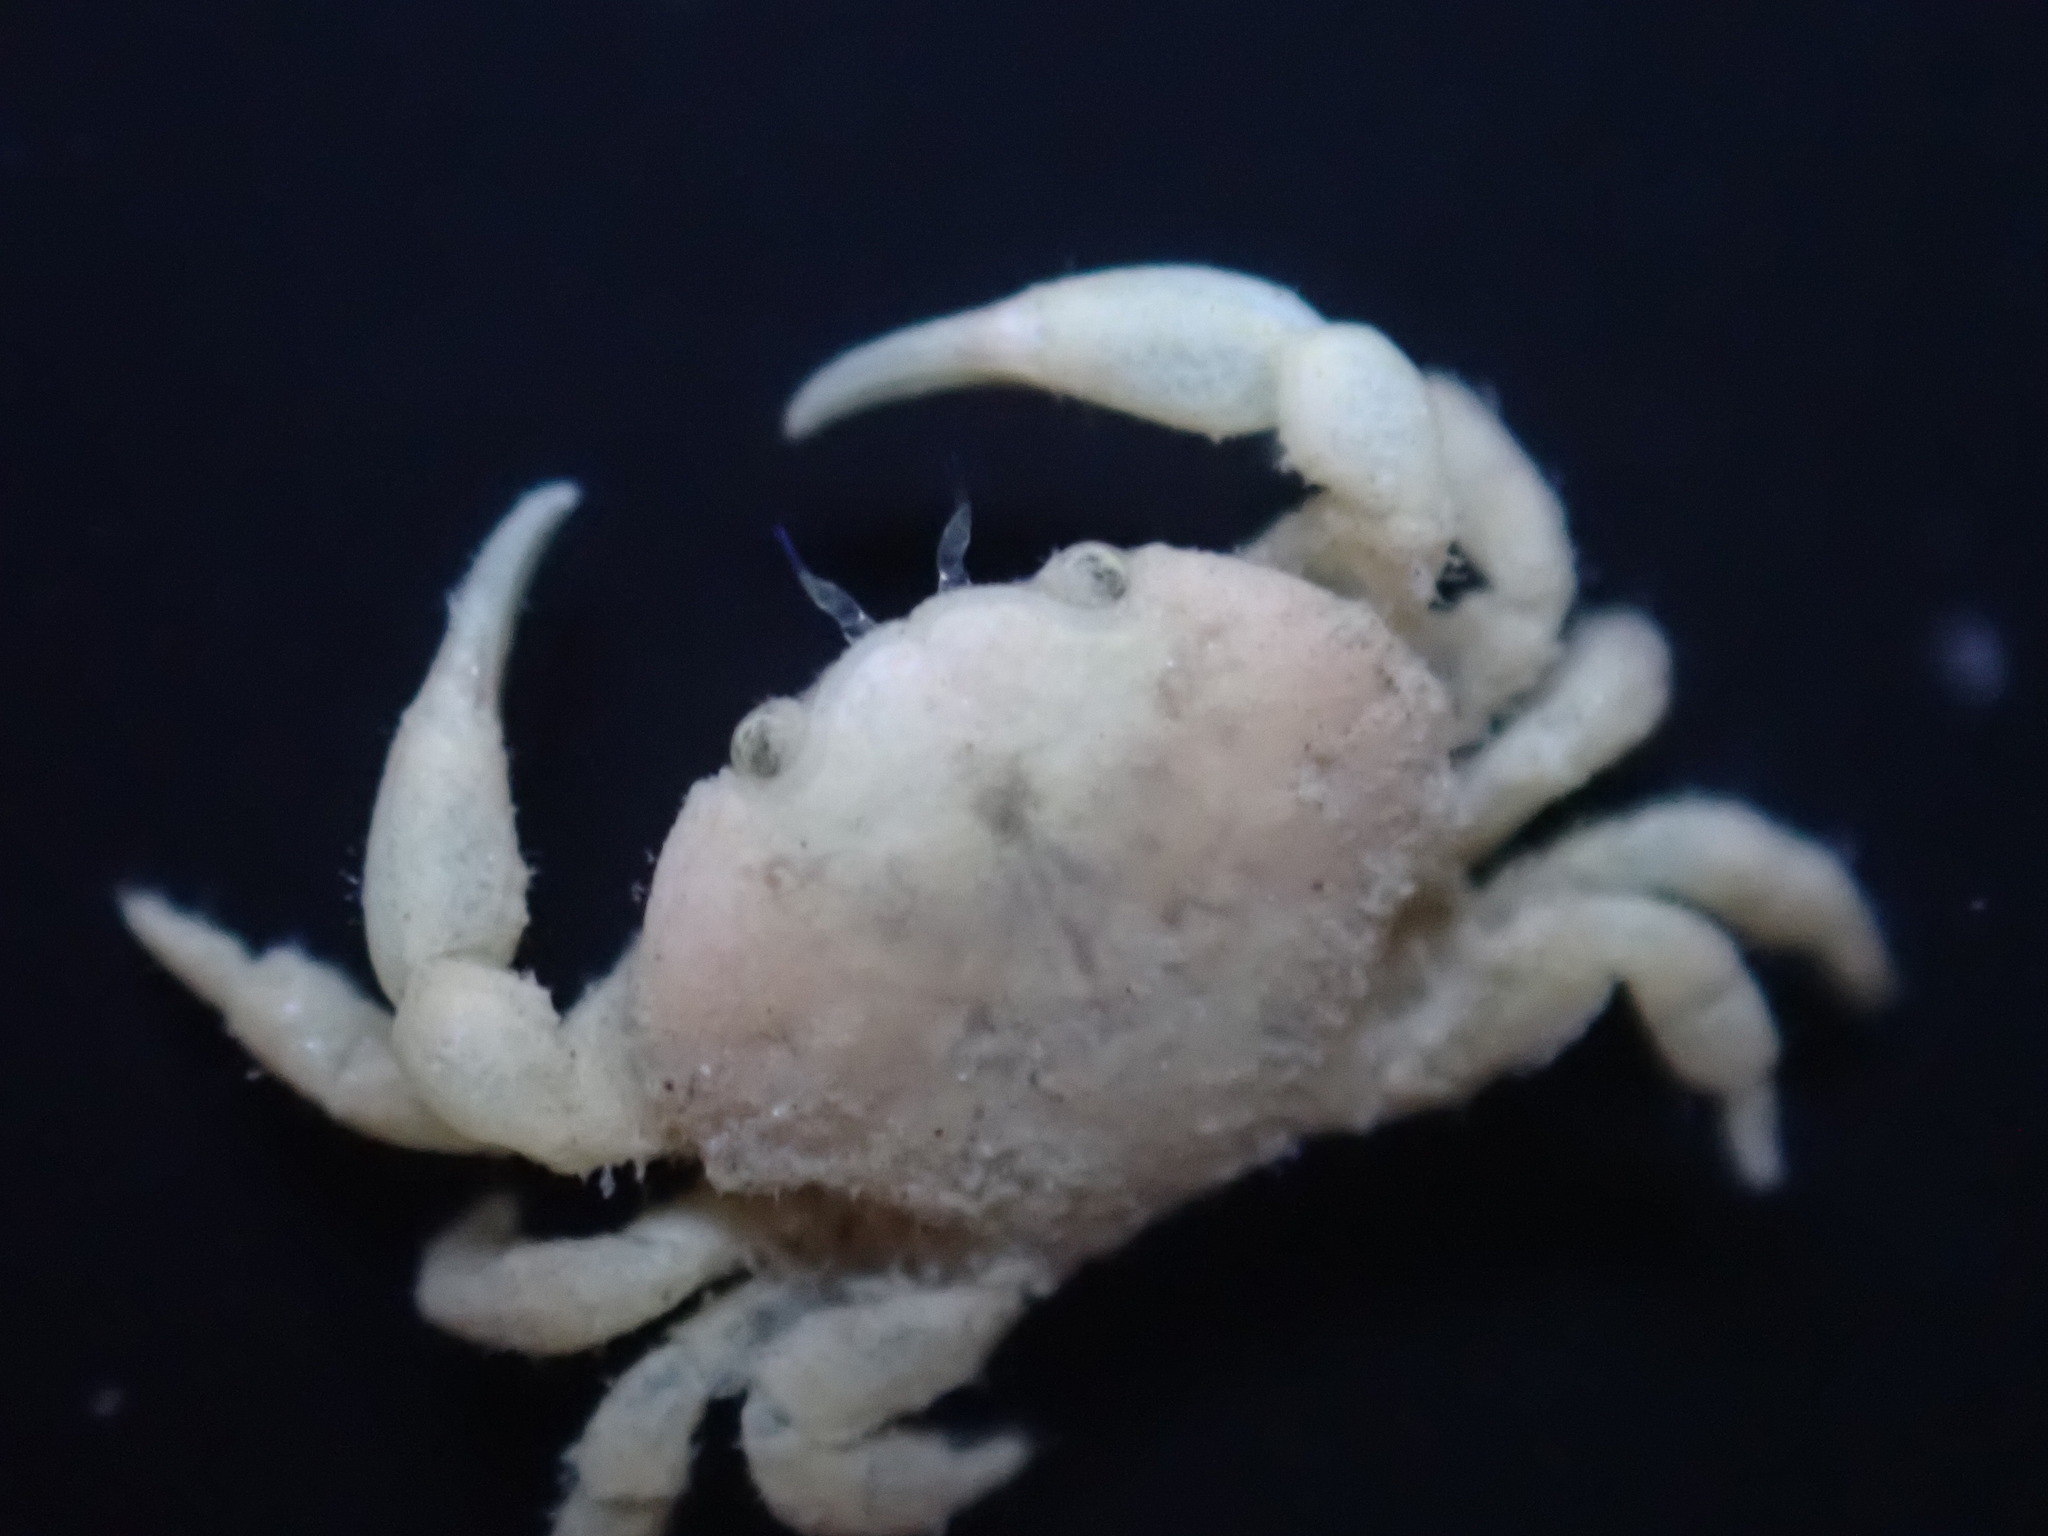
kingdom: Animalia
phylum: Arthropoda
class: Malacostraca
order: Decapoda
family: Heteroziidae
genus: Heterozius
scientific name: Heterozius rotundifrons
